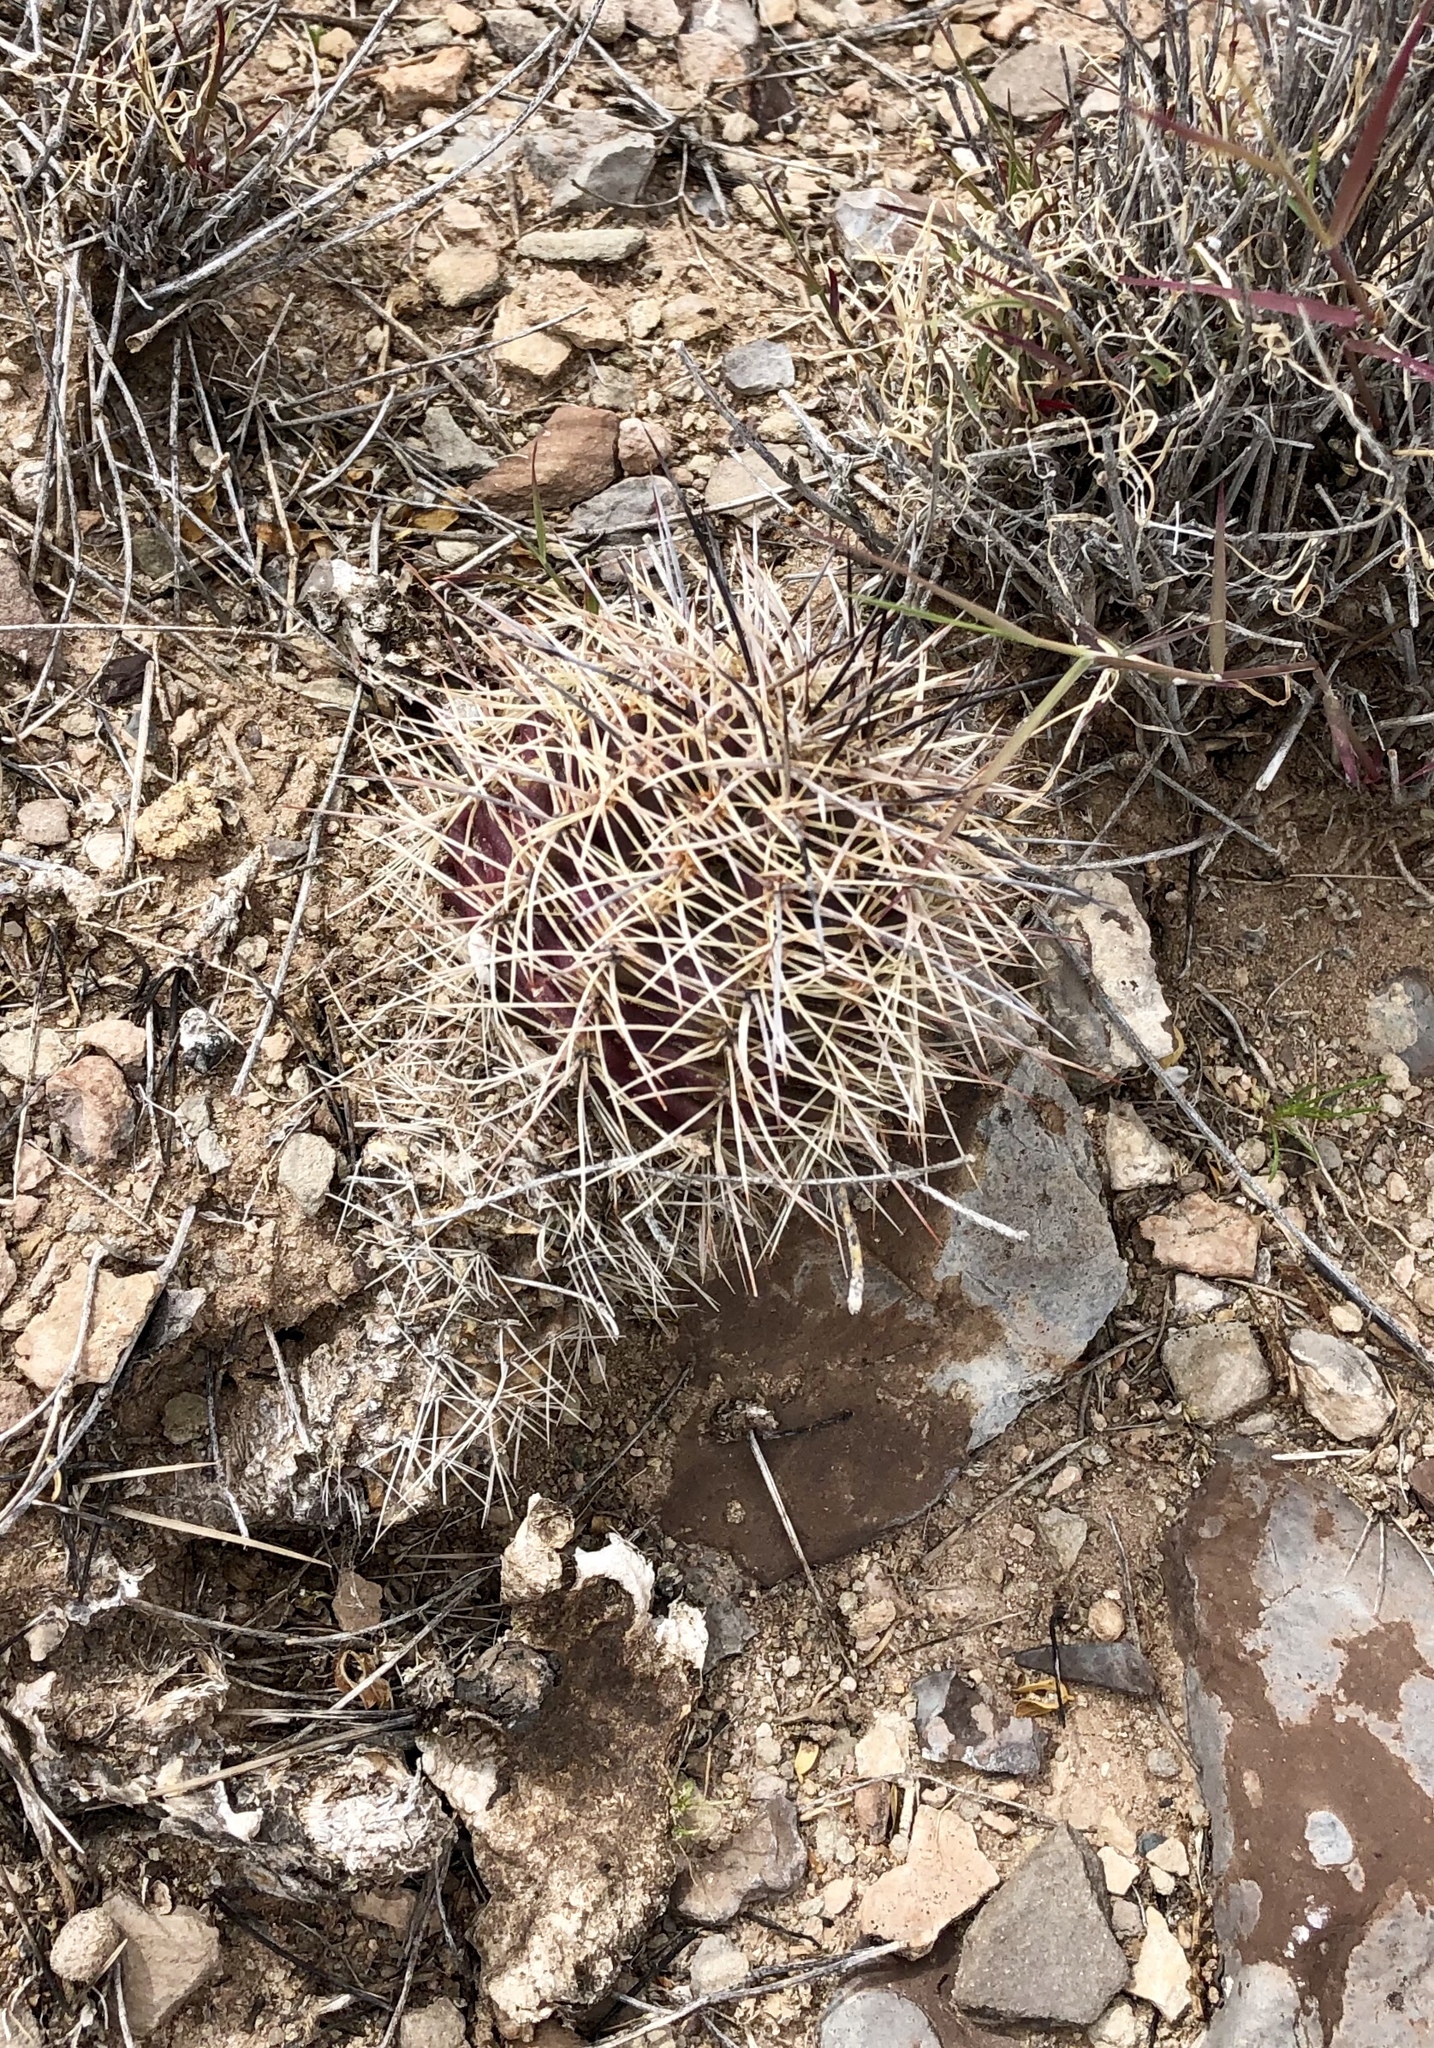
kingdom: Plantae
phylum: Tracheophyta
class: Magnoliopsida
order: Caryophyllales
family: Cactaceae
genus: Echinocereus
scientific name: Echinocereus coccineus
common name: Scarlet hedgehog cactus
